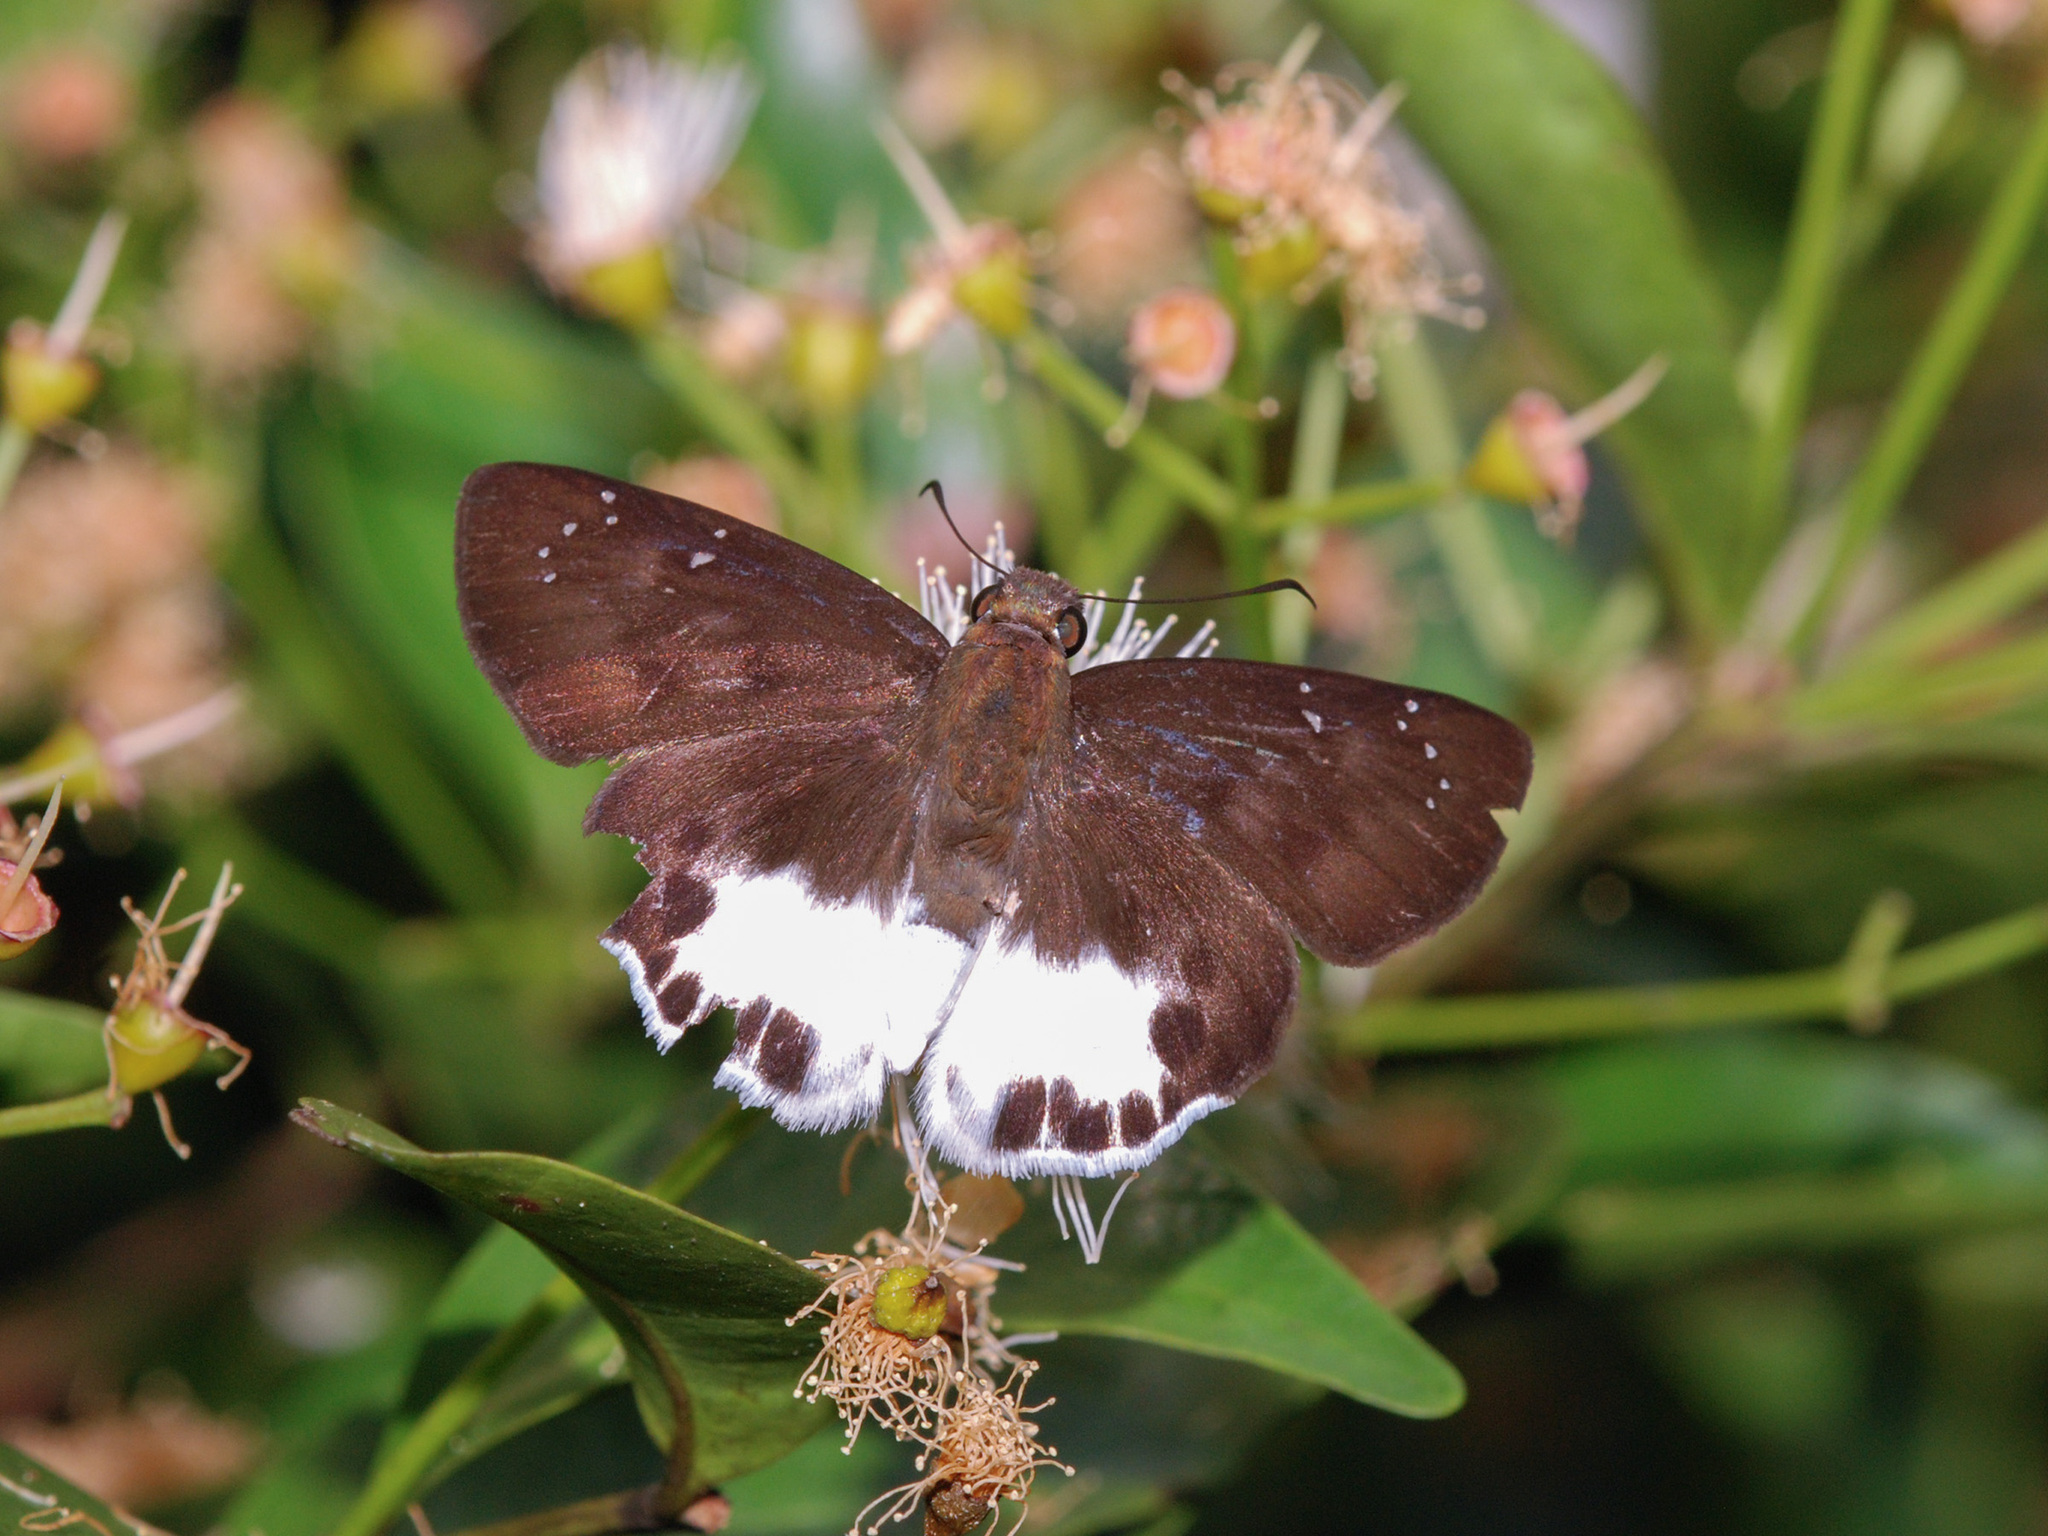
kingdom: Animalia
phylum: Arthropoda
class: Insecta
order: Lepidoptera
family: Hesperiidae
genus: Tagiades
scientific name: Tagiades litigiosa
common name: Water snow flat
